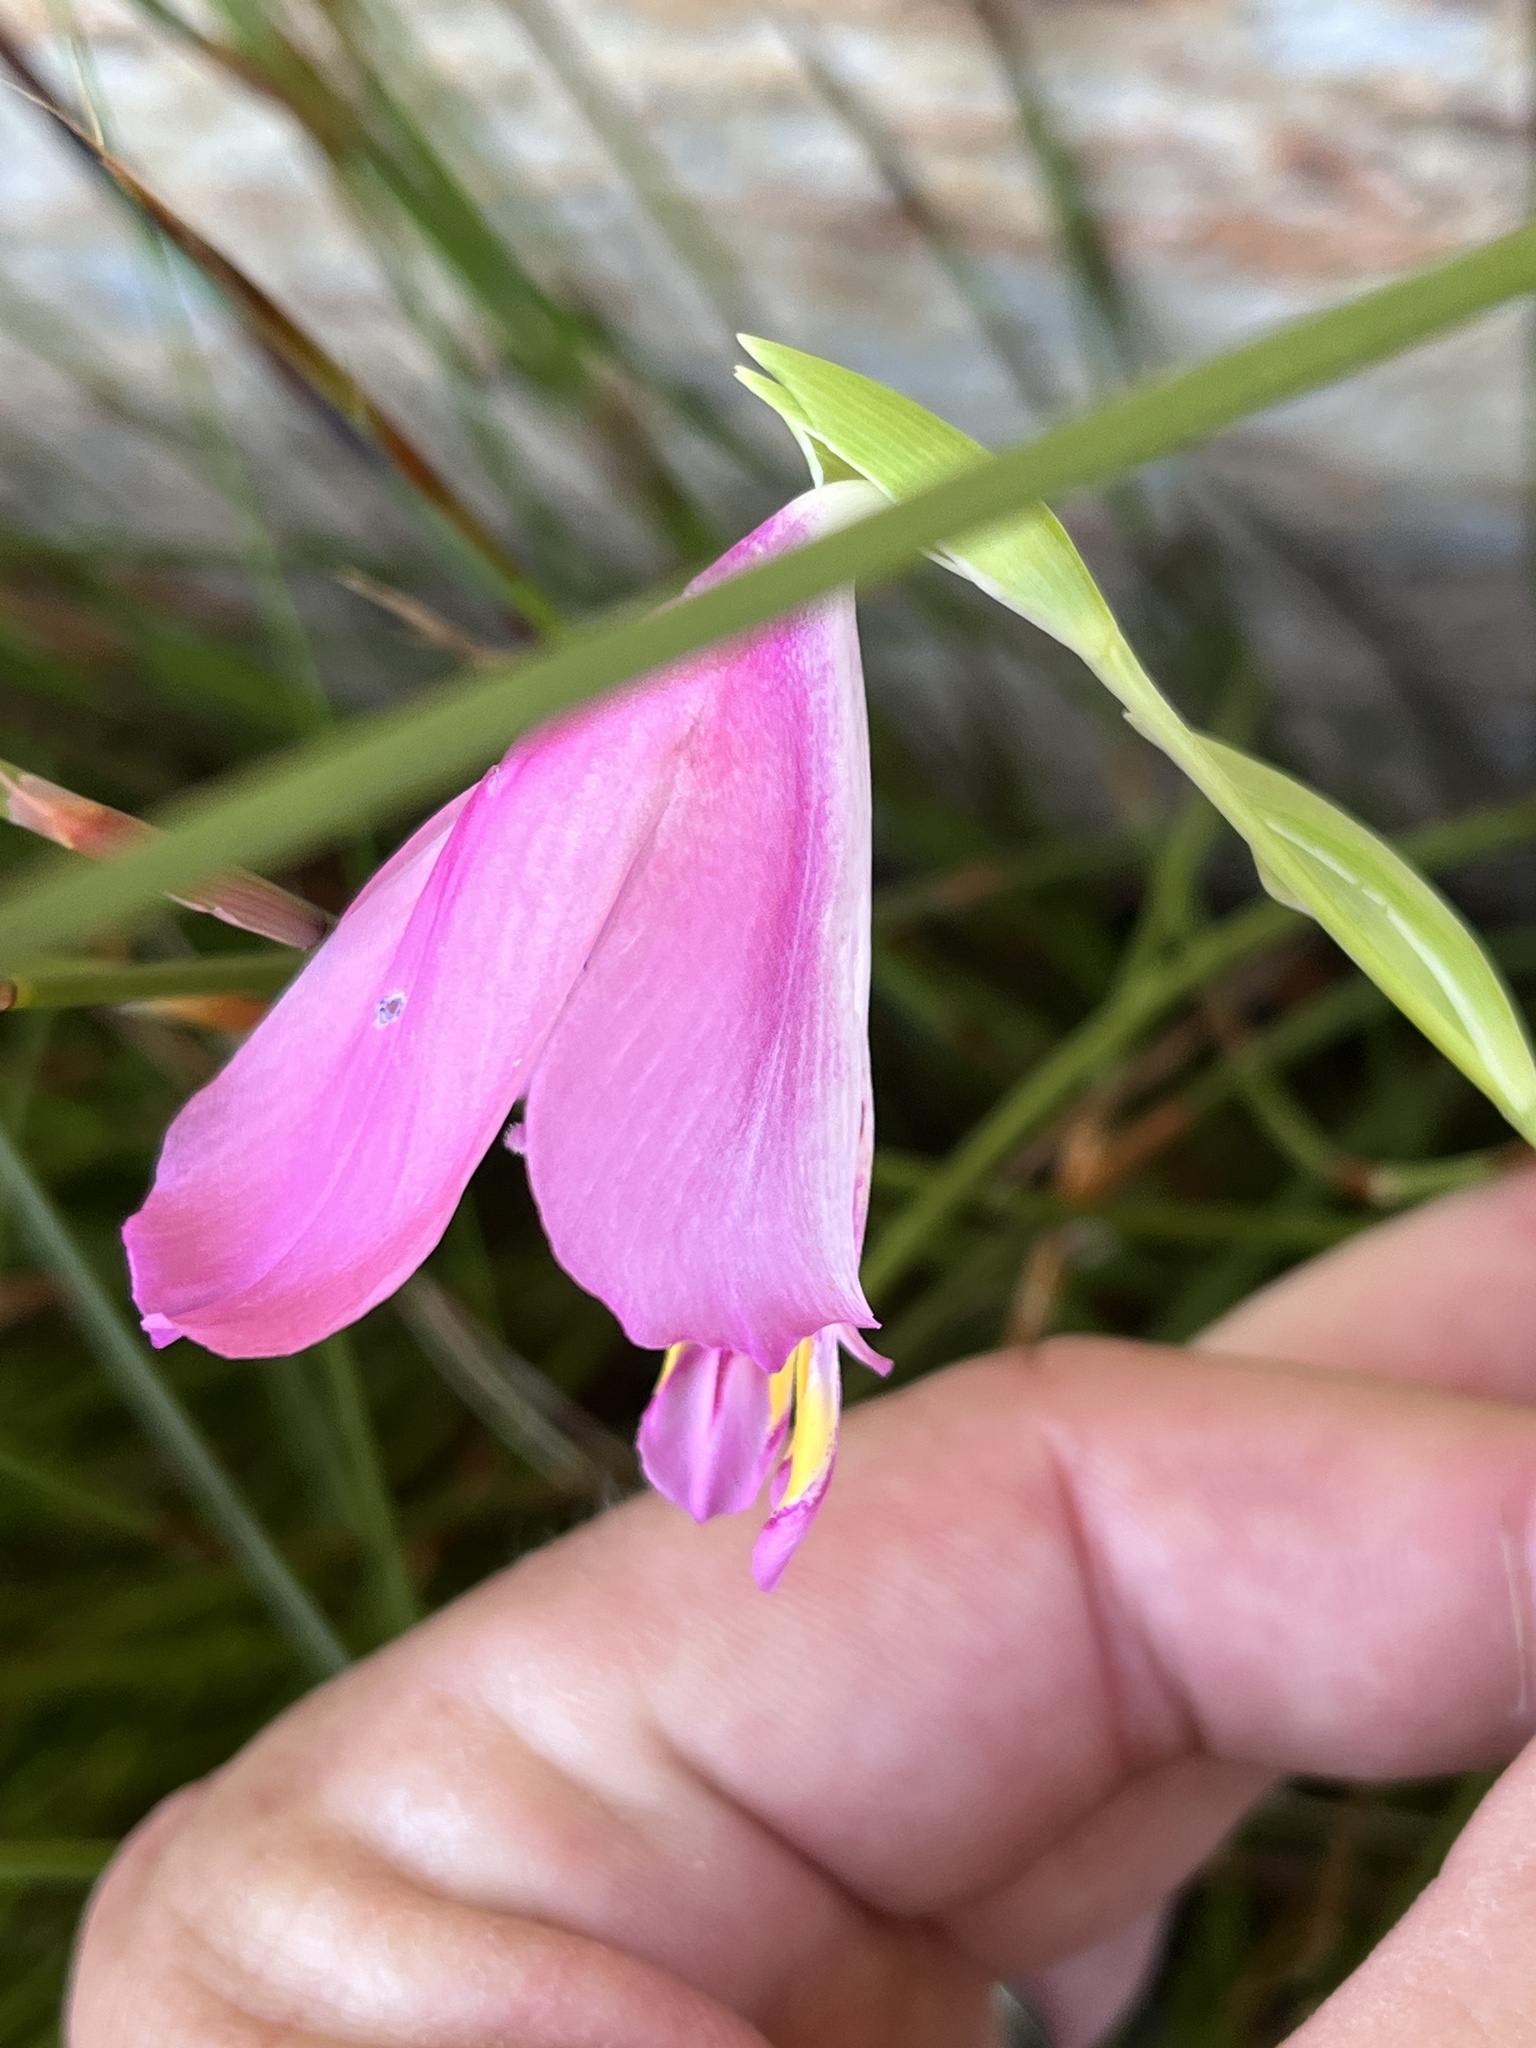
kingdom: Plantae
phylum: Tracheophyta
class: Liliopsida
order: Asparagales
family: Iridaceae
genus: Gladiolus
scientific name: Gladiolus rogersii
